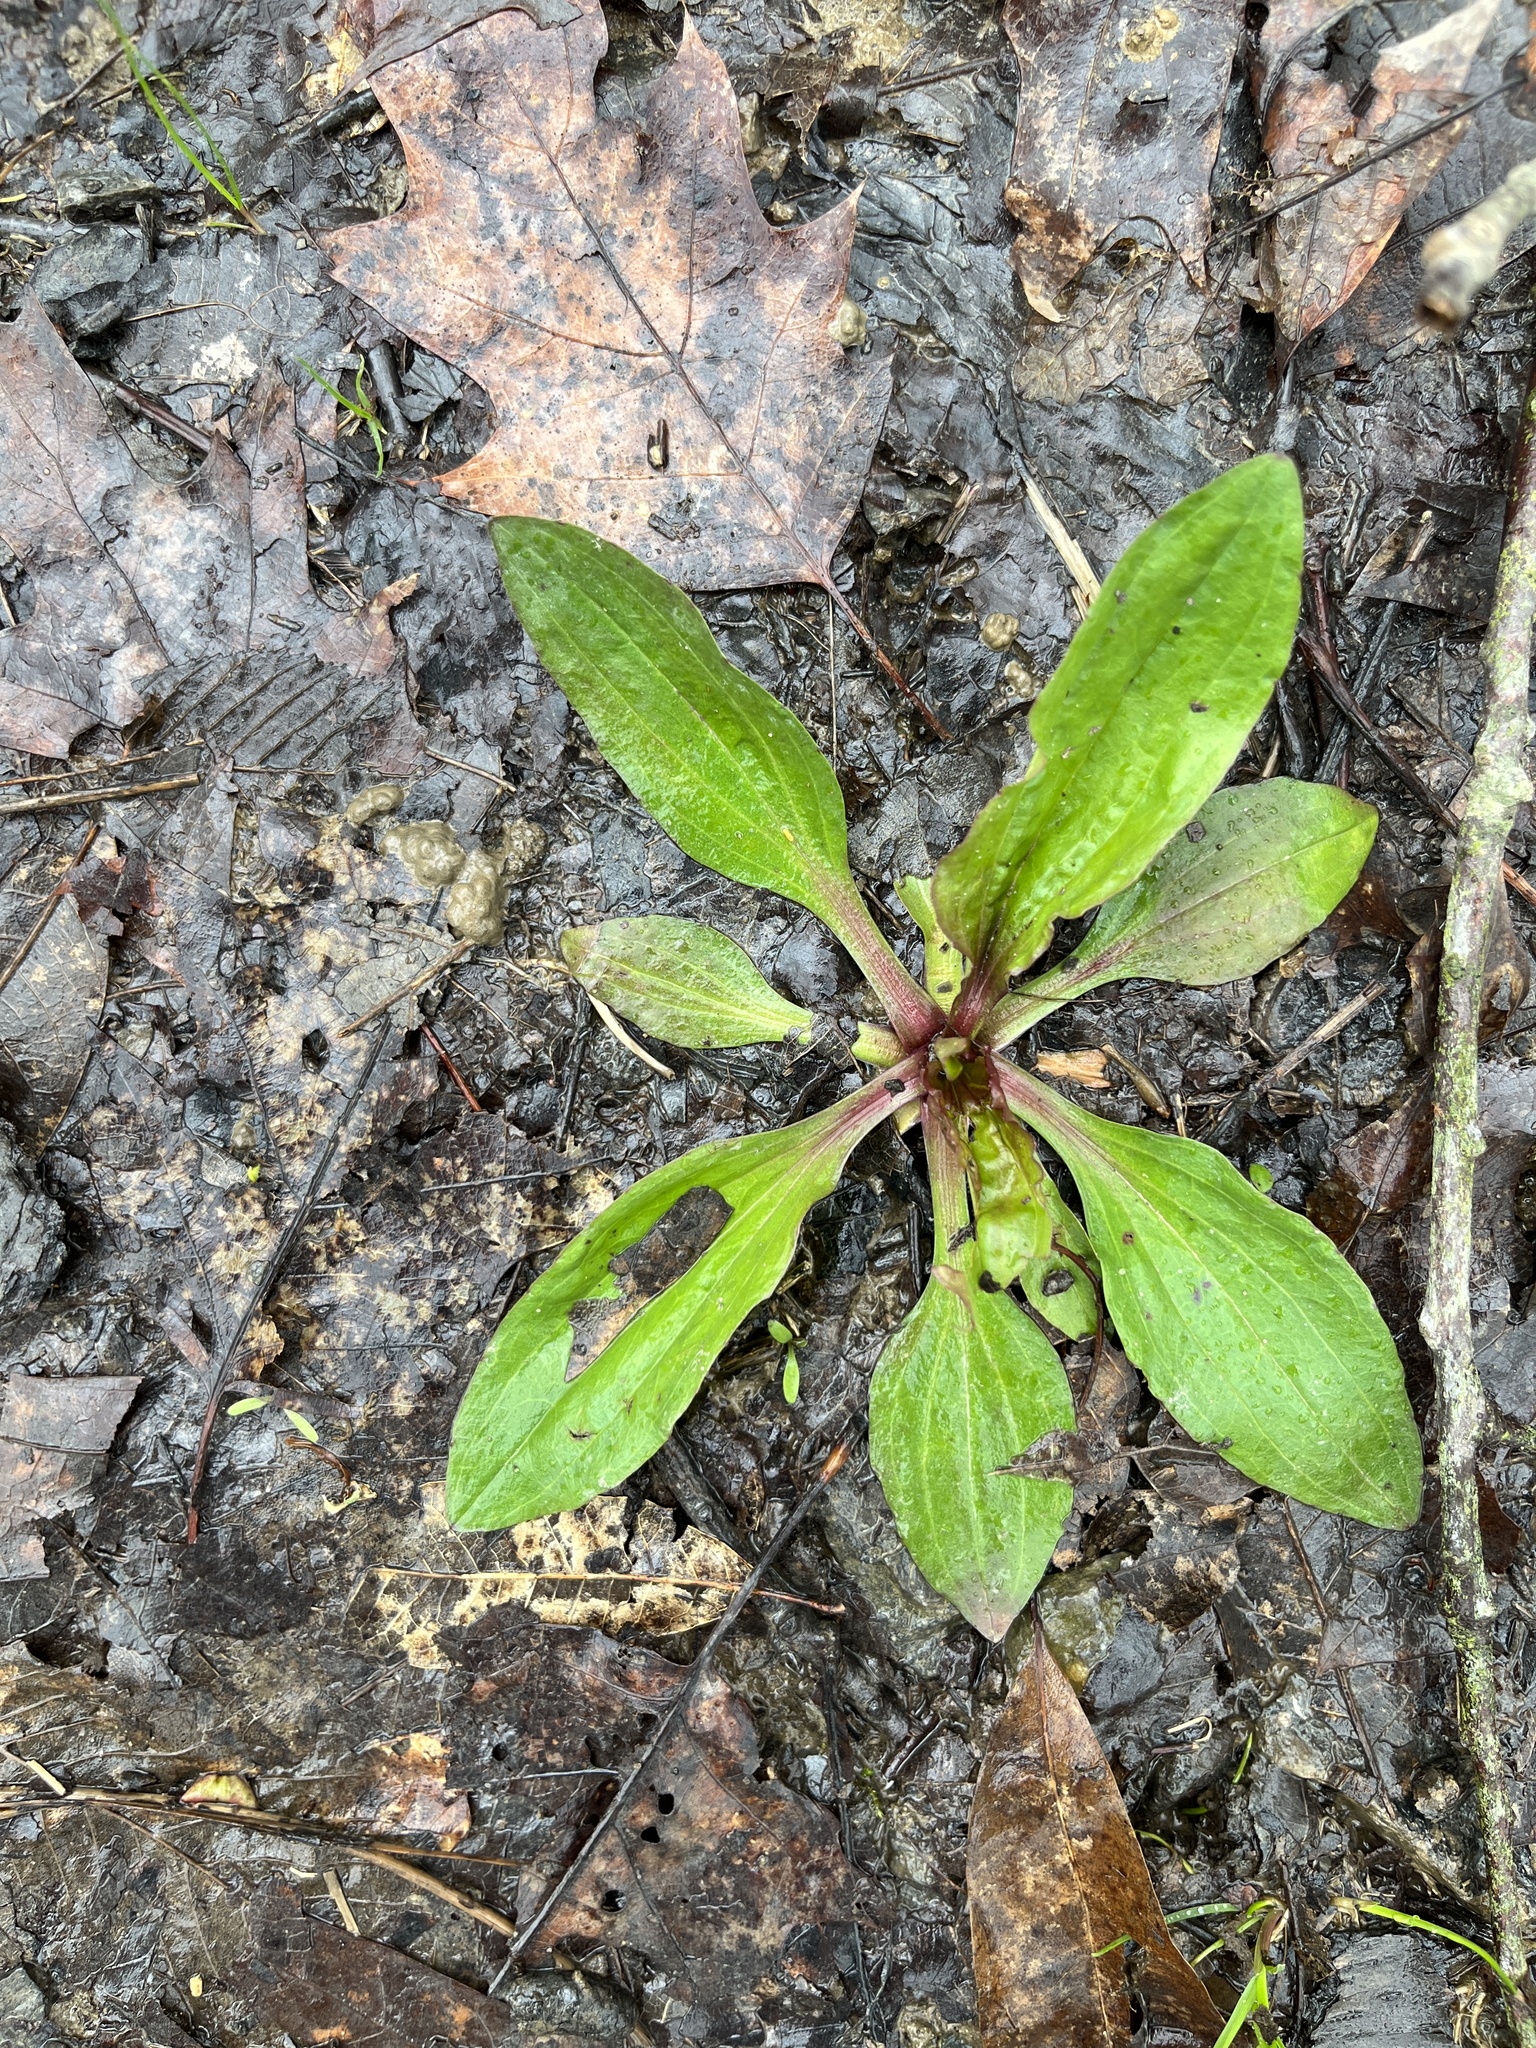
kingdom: Plantae
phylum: Tracheophyta
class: Magnoliopsida
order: Lamiales
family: Plantaginaceae
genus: Plantago
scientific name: Plantago rugelii
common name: American plantain
